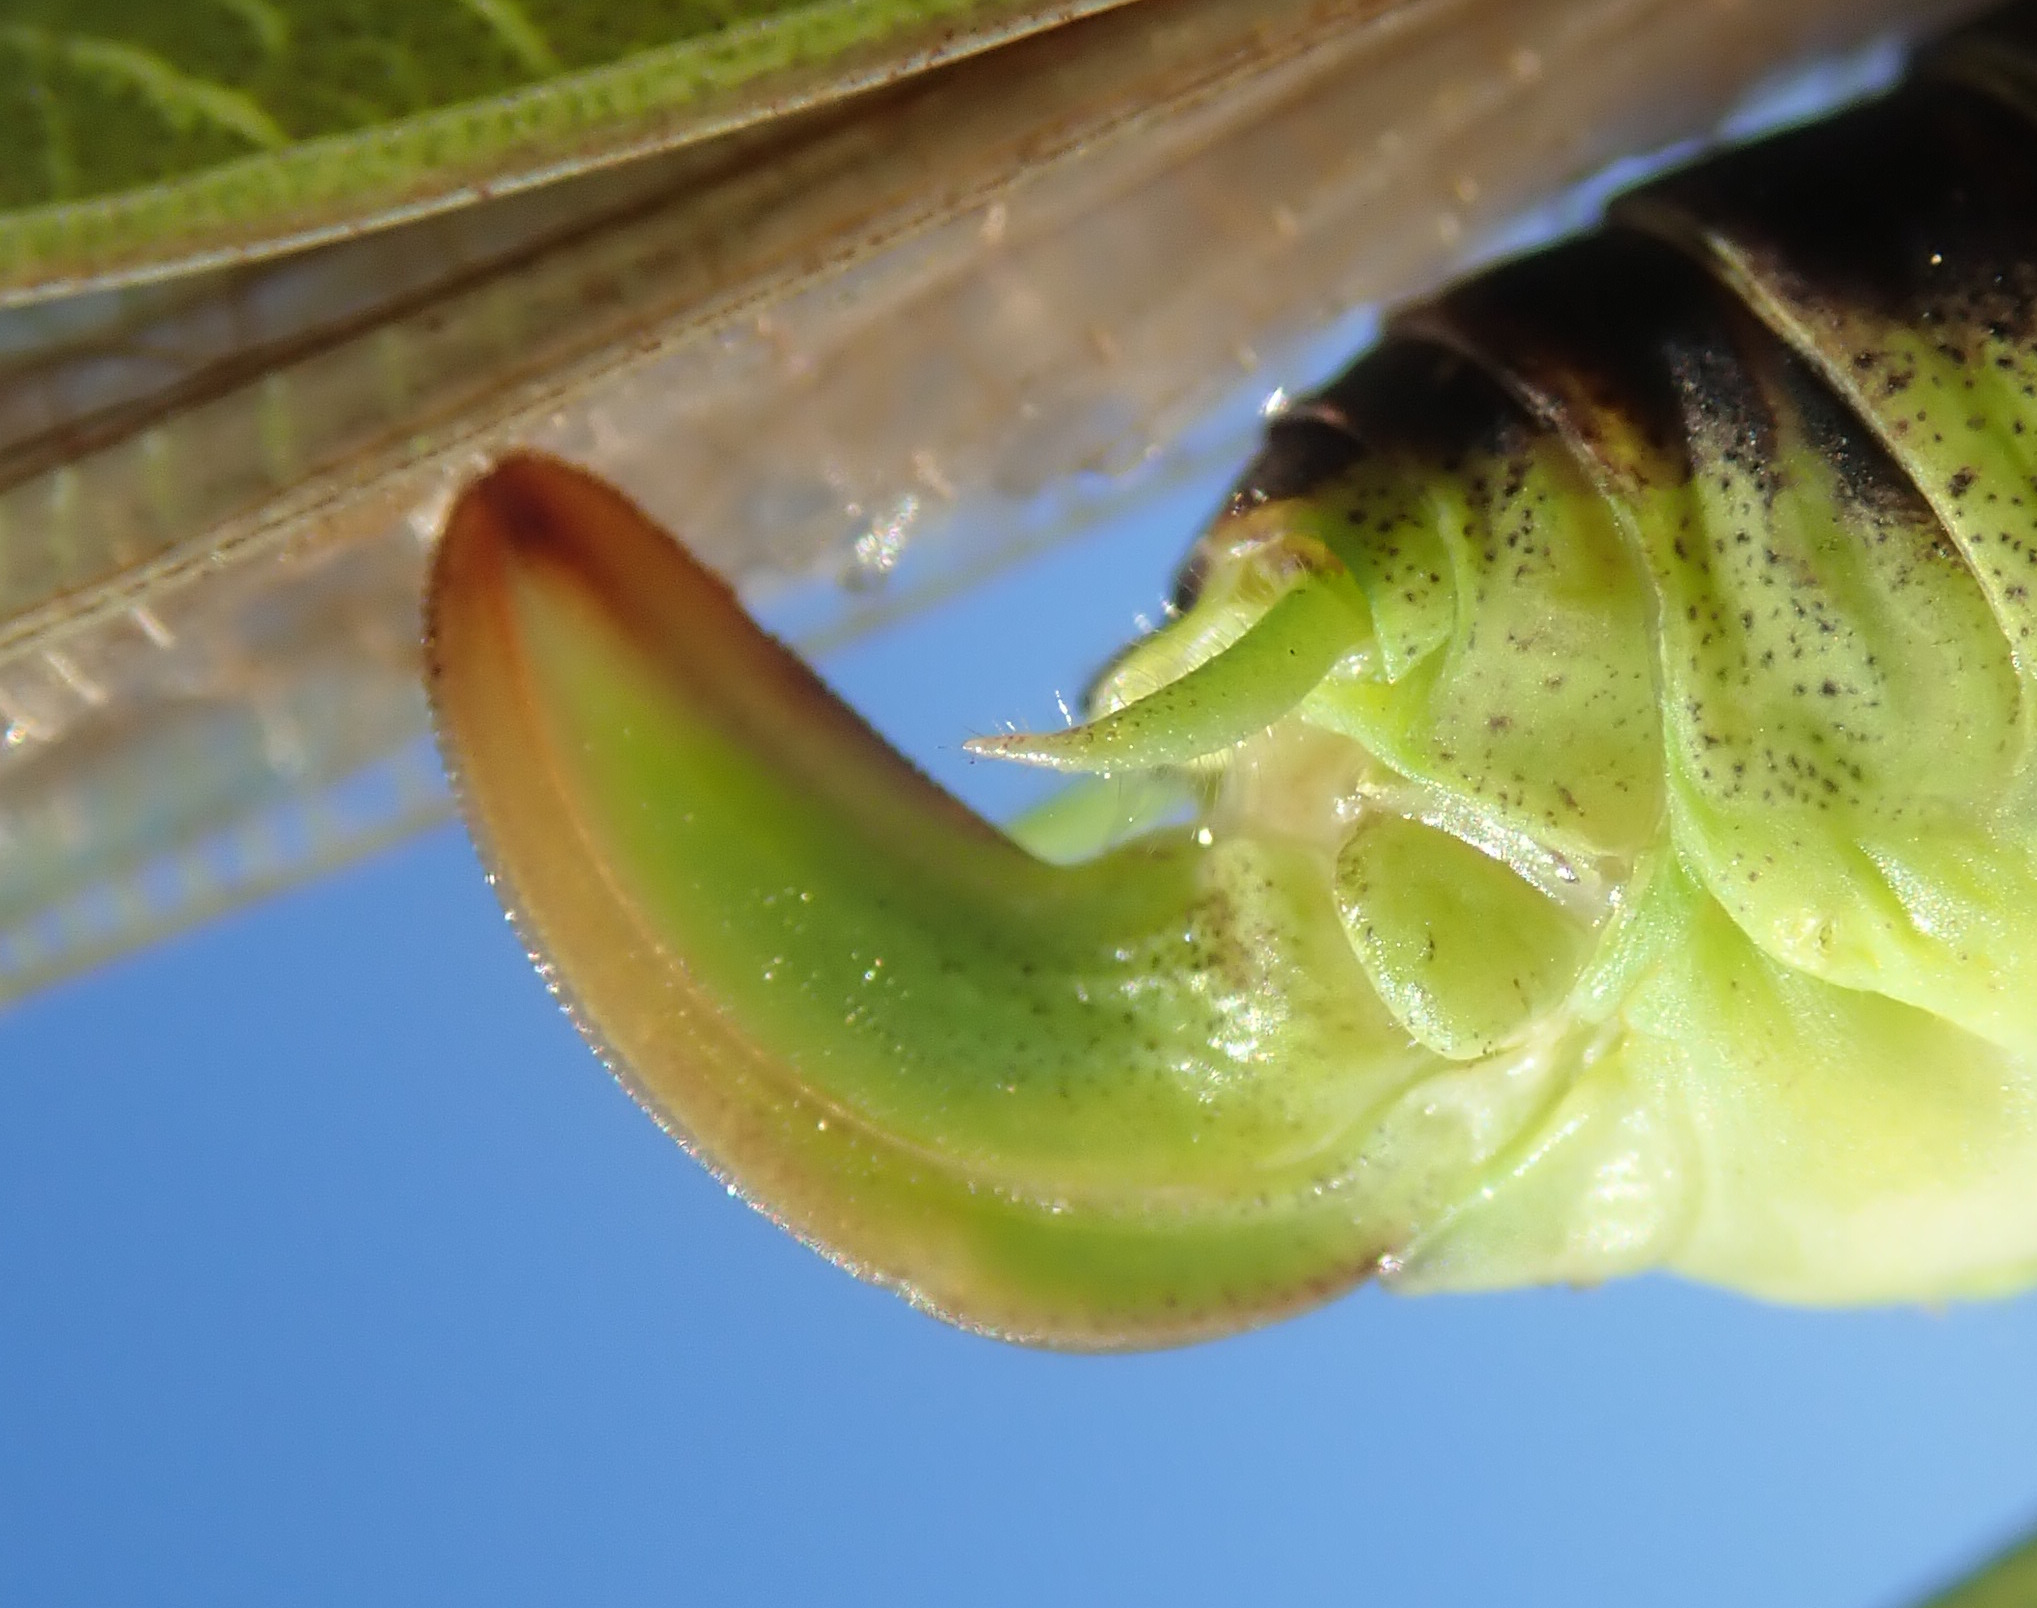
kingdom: Animalia
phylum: Arthropoda
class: Insecta
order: Orthoptera
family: Tettigoniidae
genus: Phaneroptera
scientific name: Phaneroptera falcata
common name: Sickle-bearing bush-cricket
